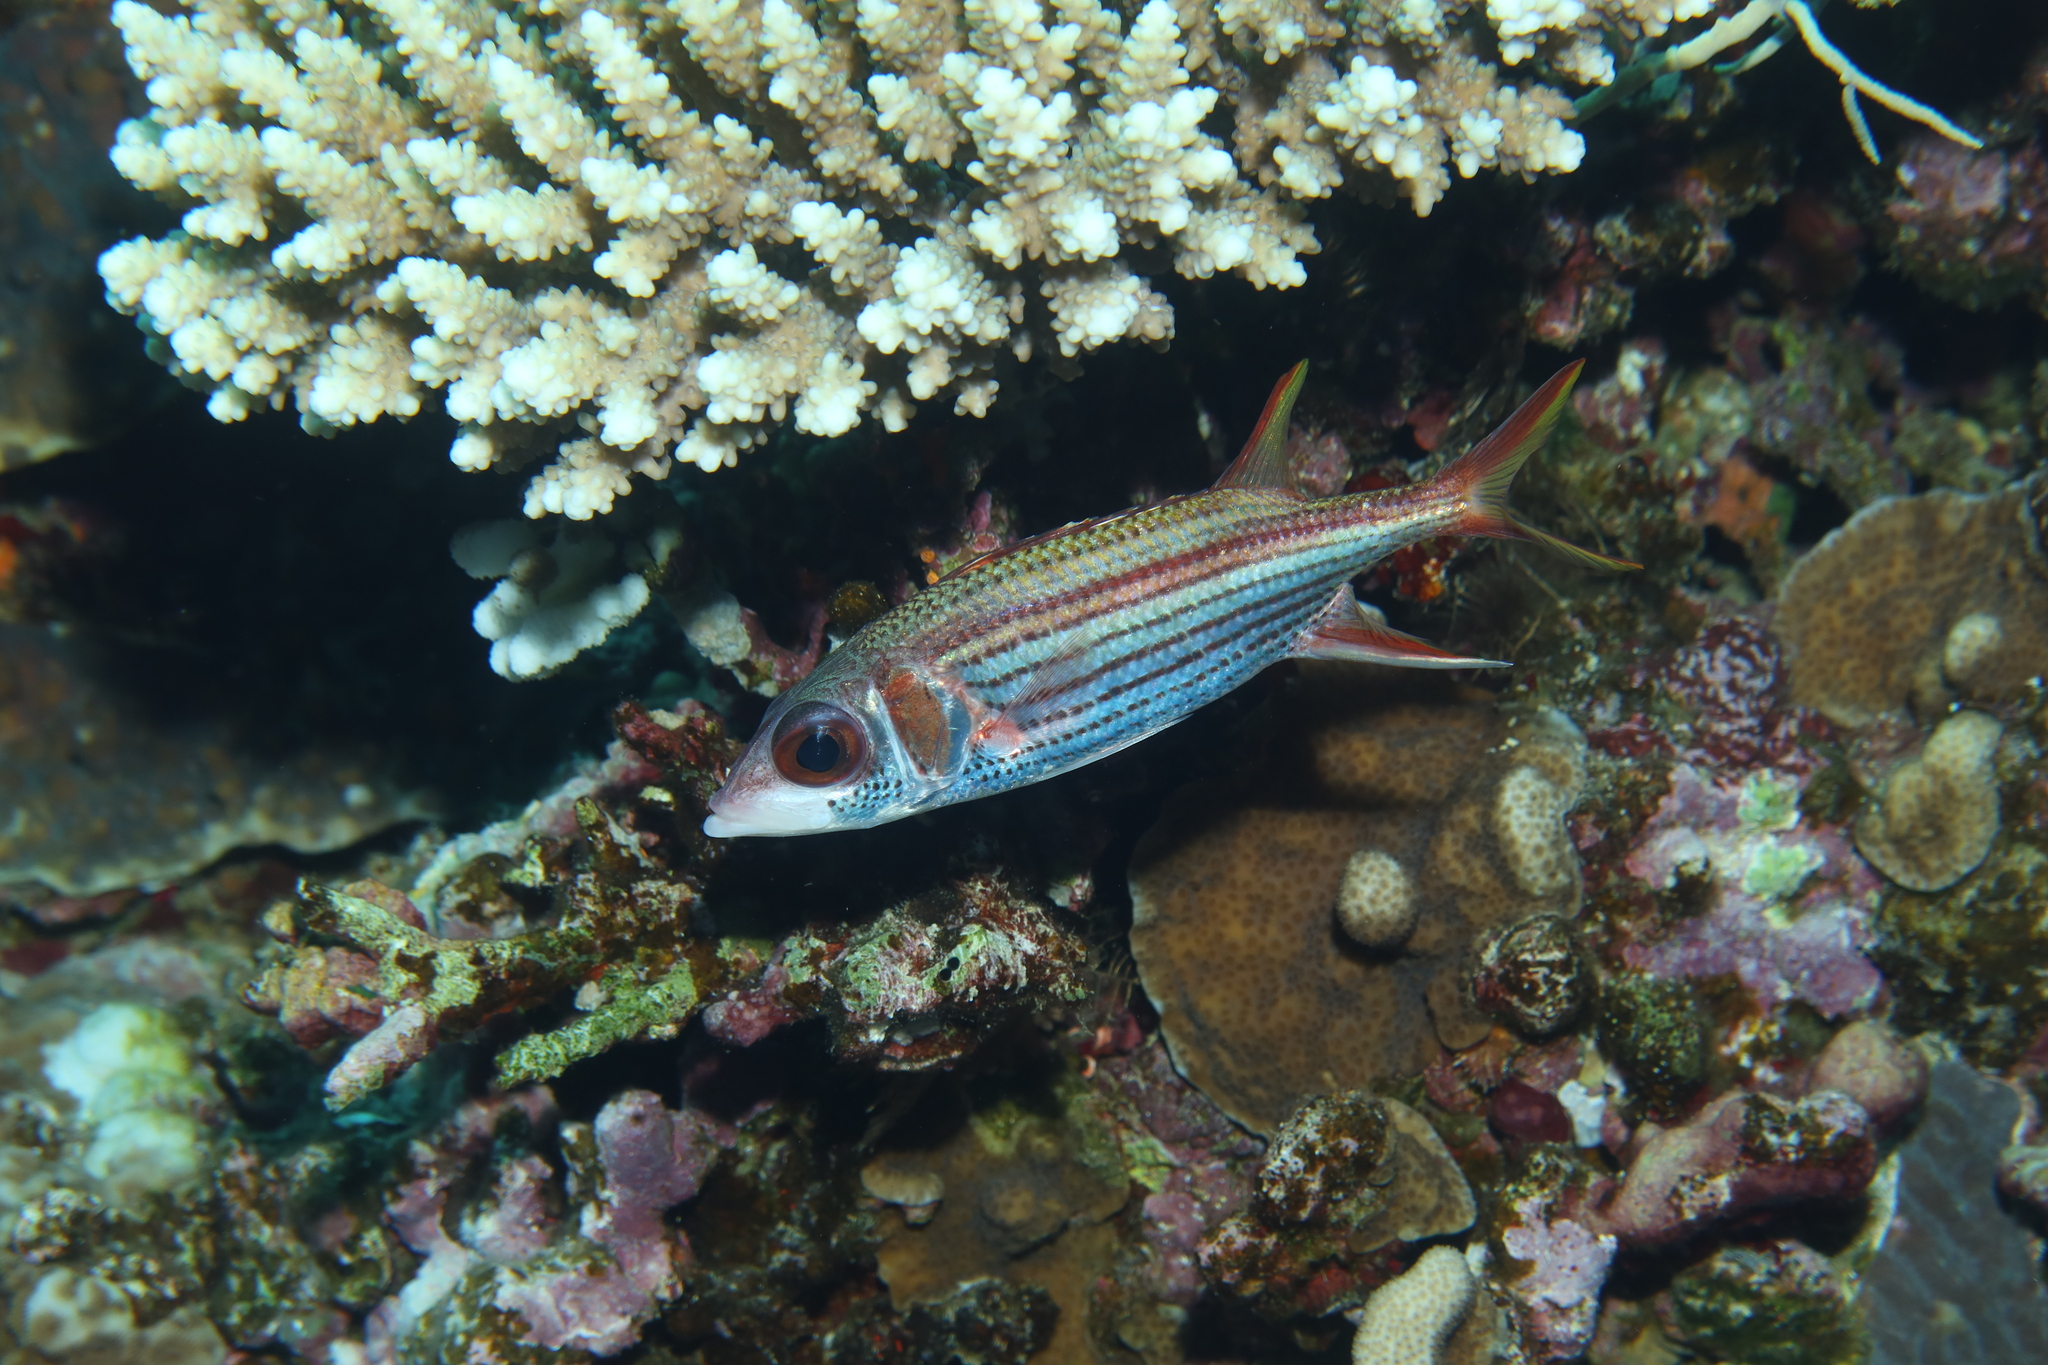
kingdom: Animalia
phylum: Chordata
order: Beryciformes
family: Holocentridae
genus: Neoniphon
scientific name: Neoniphon sammara
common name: Sammara squirrelfish
